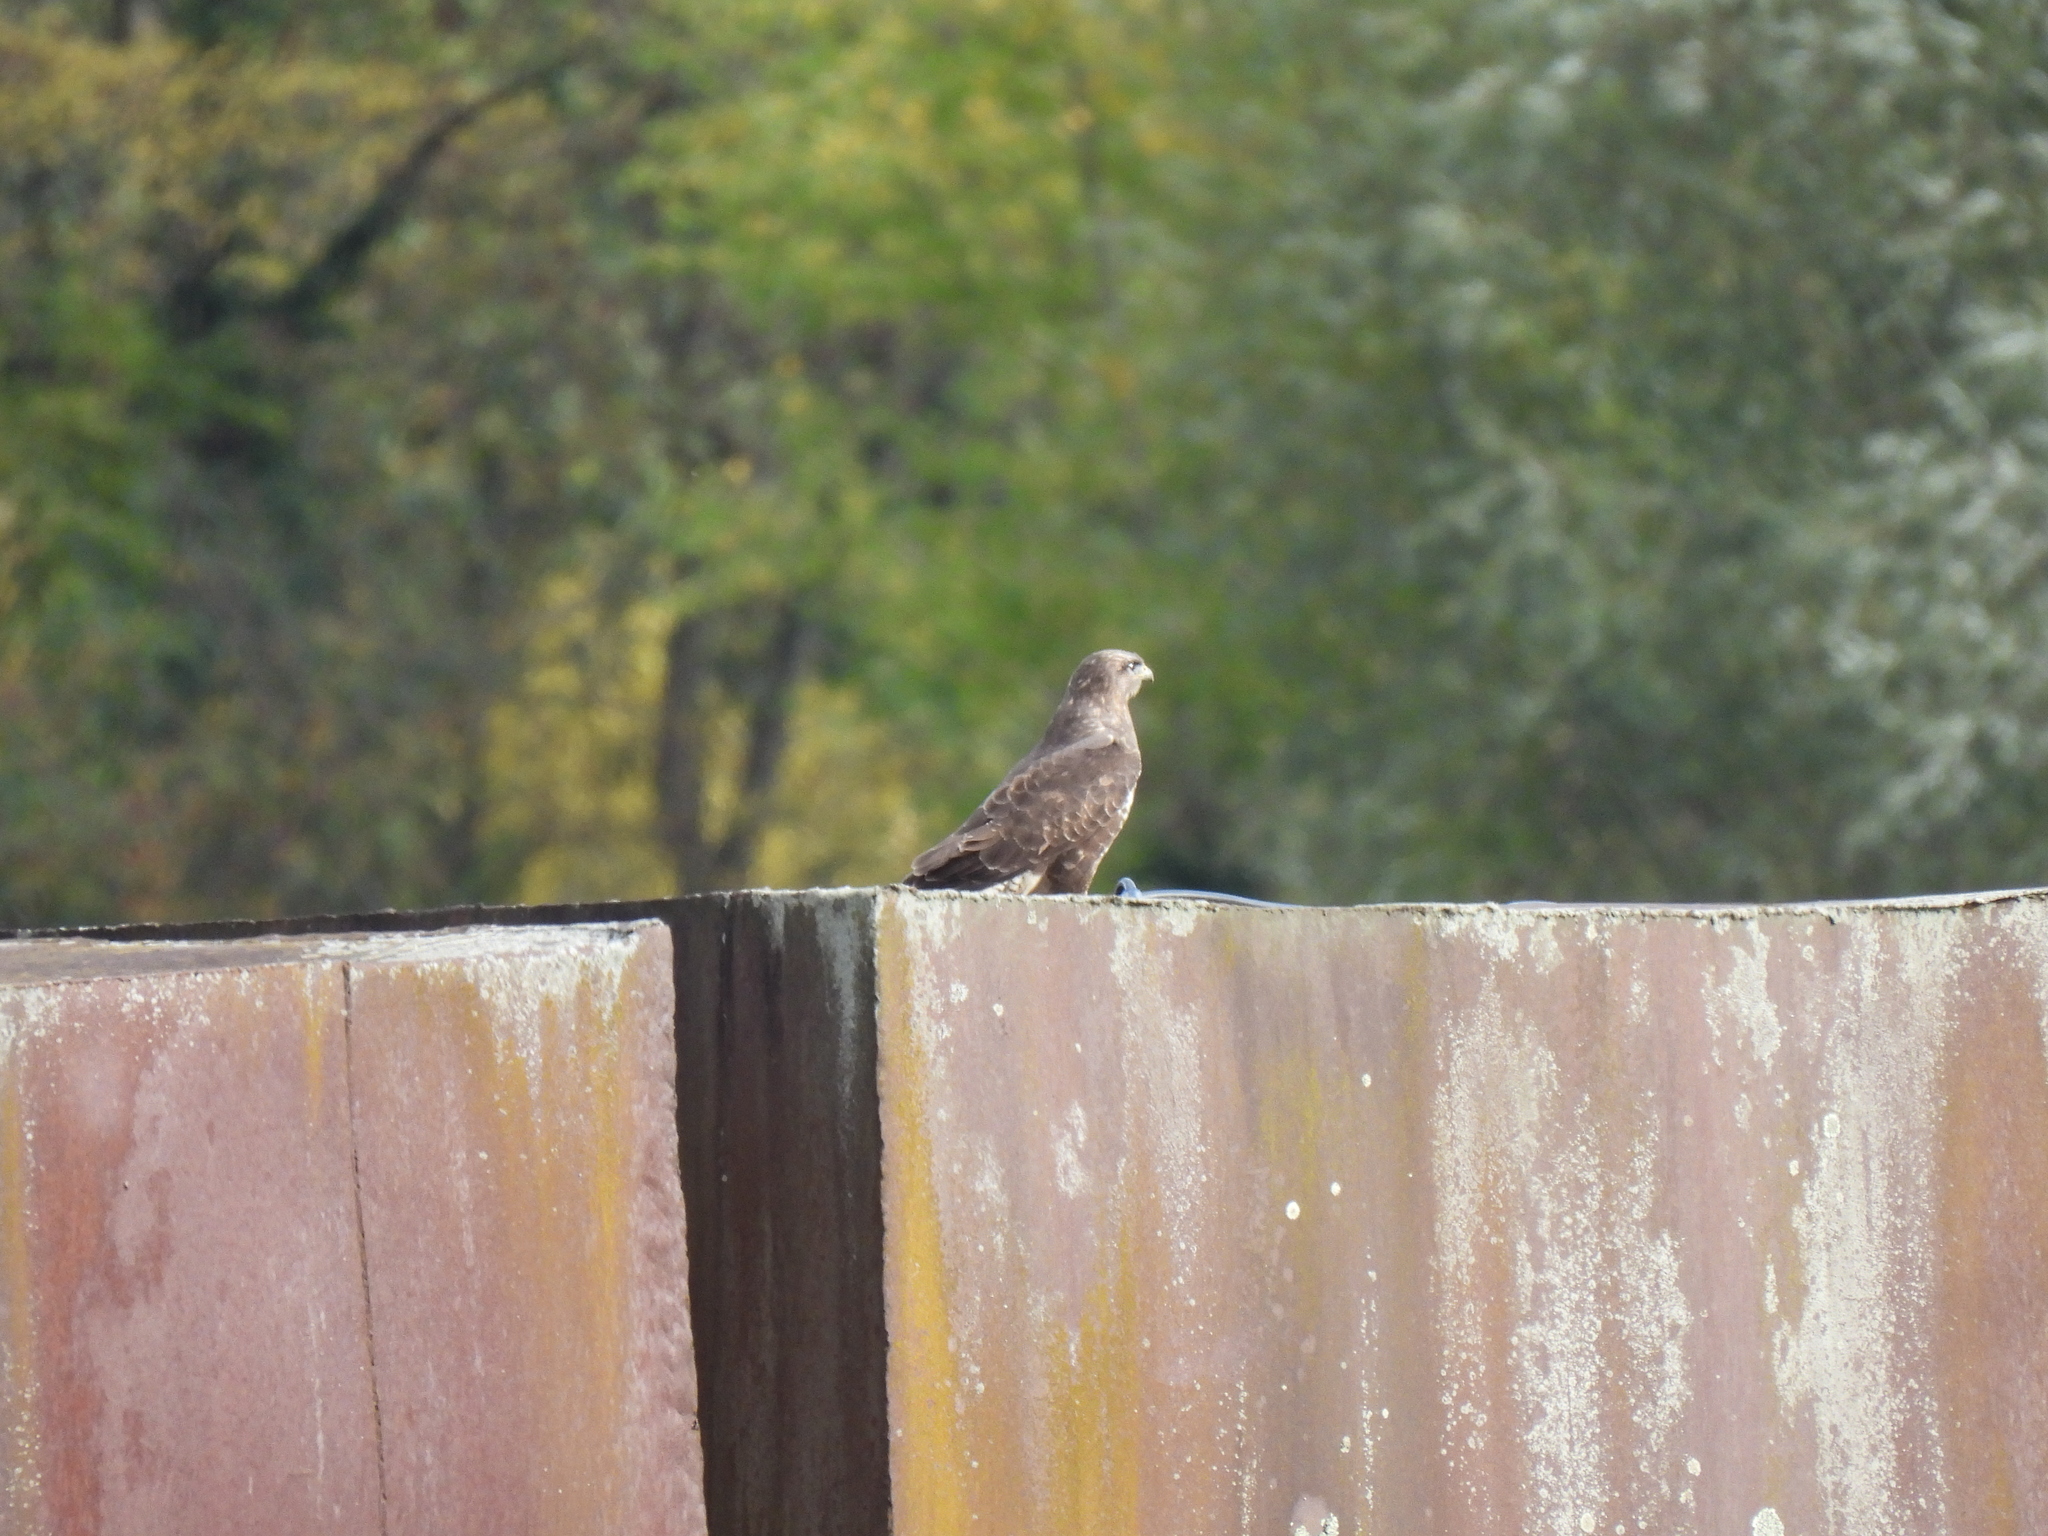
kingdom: Animalia
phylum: Chordata
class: Aves
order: Accipitriformes
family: Accipitridae
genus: Buteo
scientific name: Buteo buteo
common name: Common buzzard
